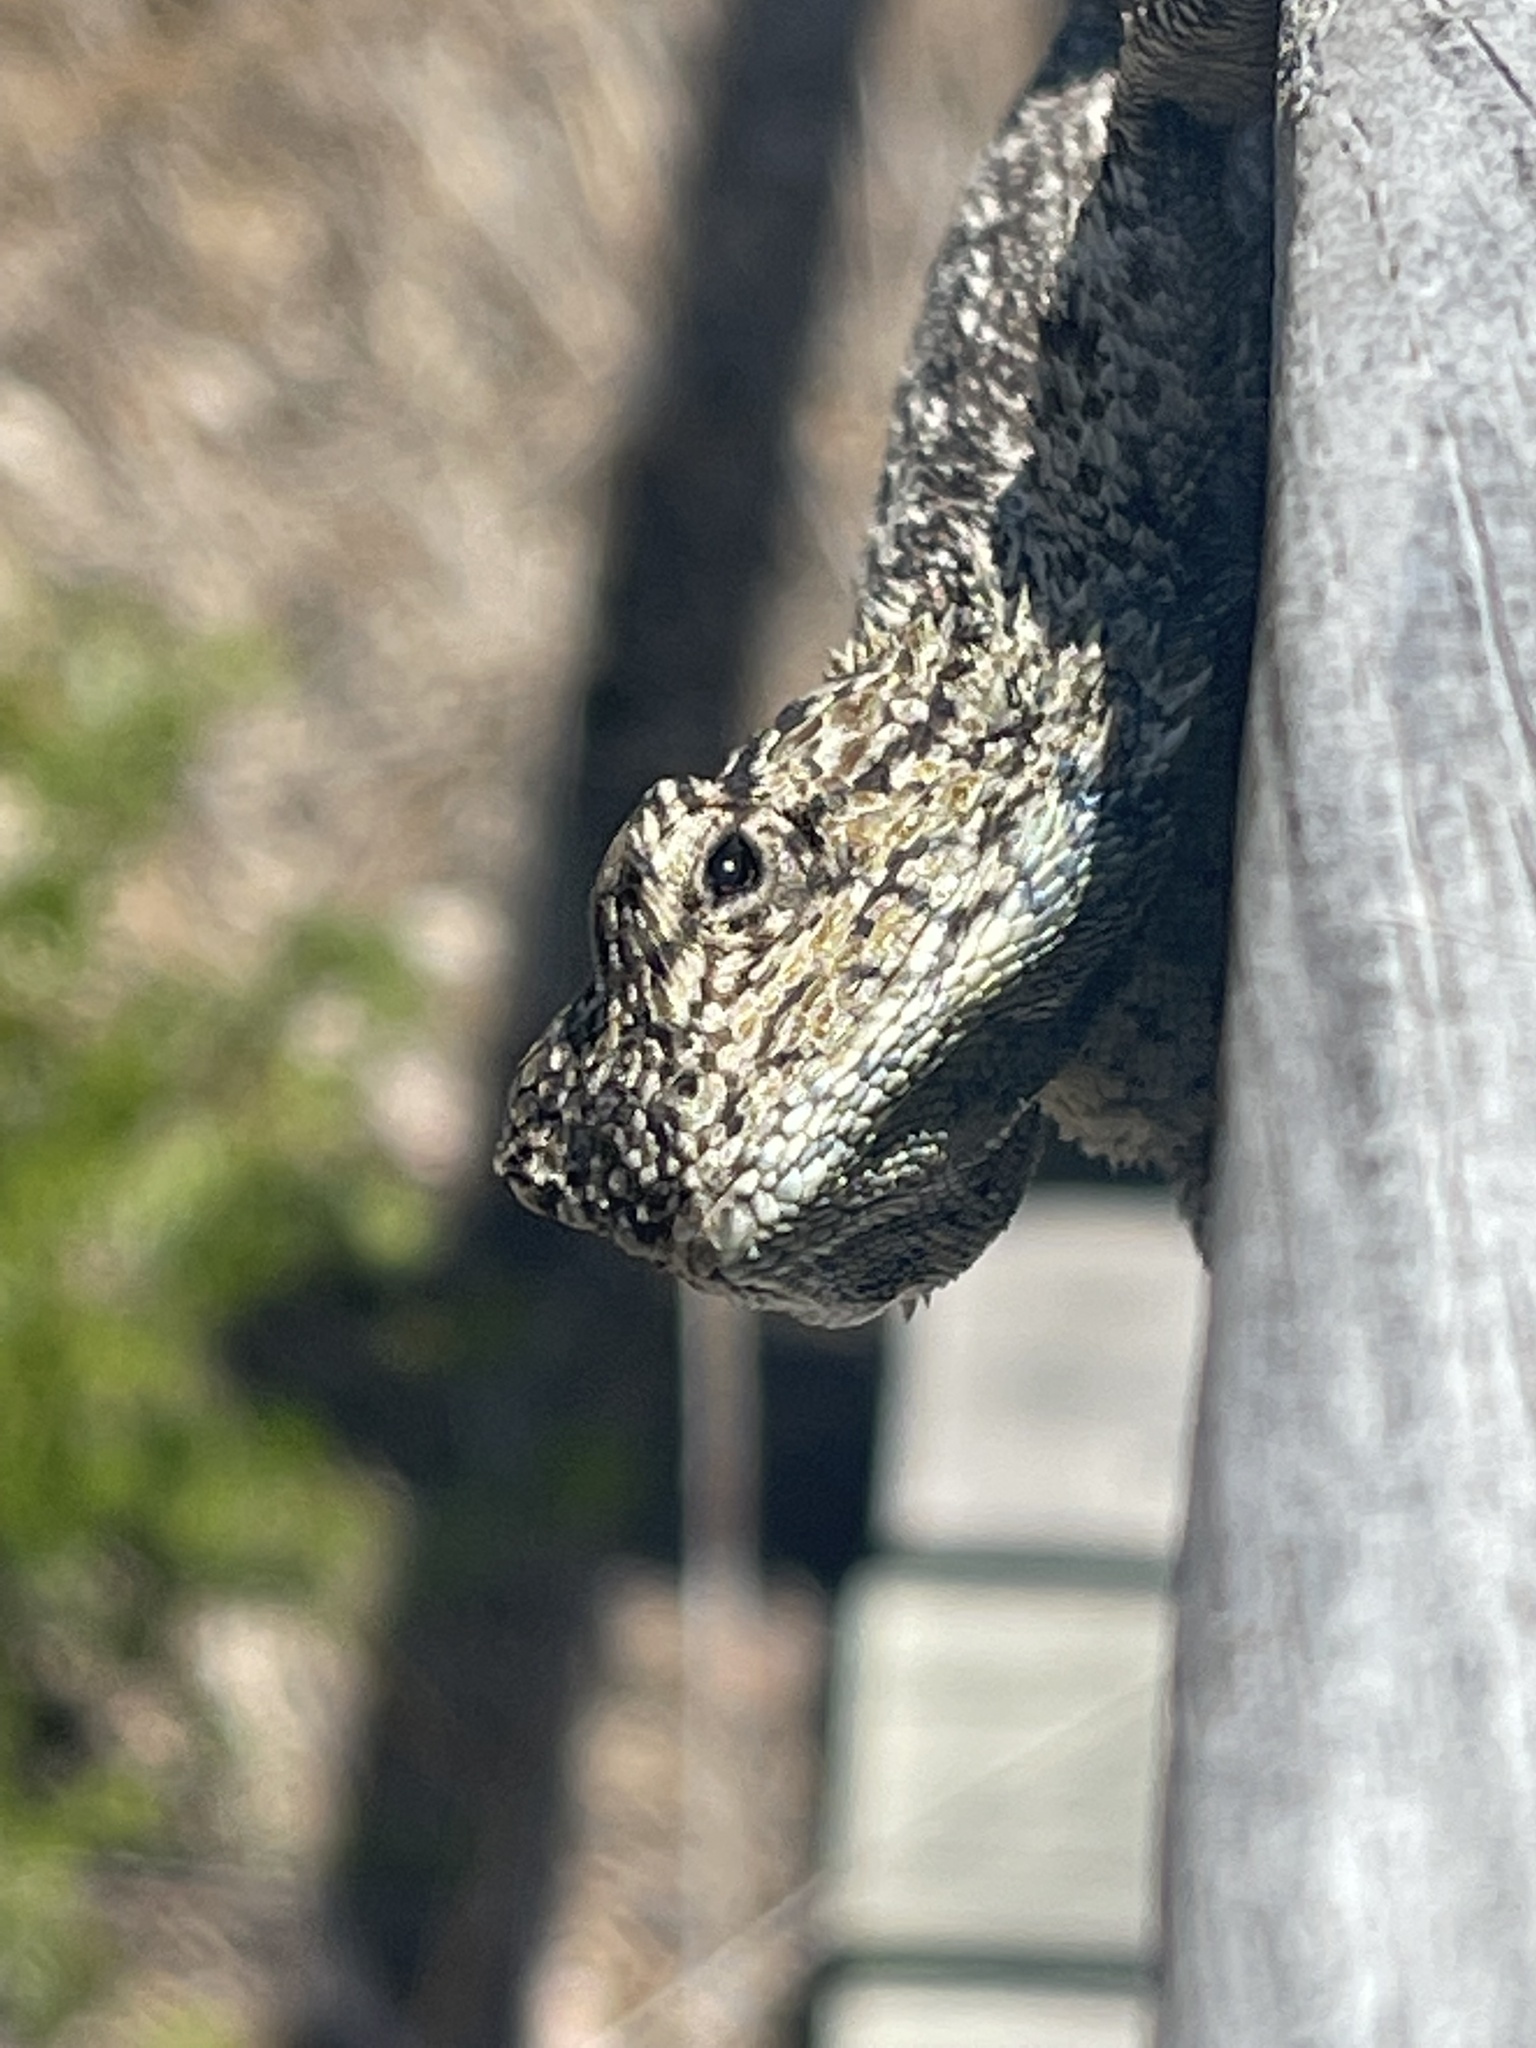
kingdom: Animalia
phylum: Chordata
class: Squamata
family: Agamidae
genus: Agama
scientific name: Agama atra
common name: Southern african rock agama
